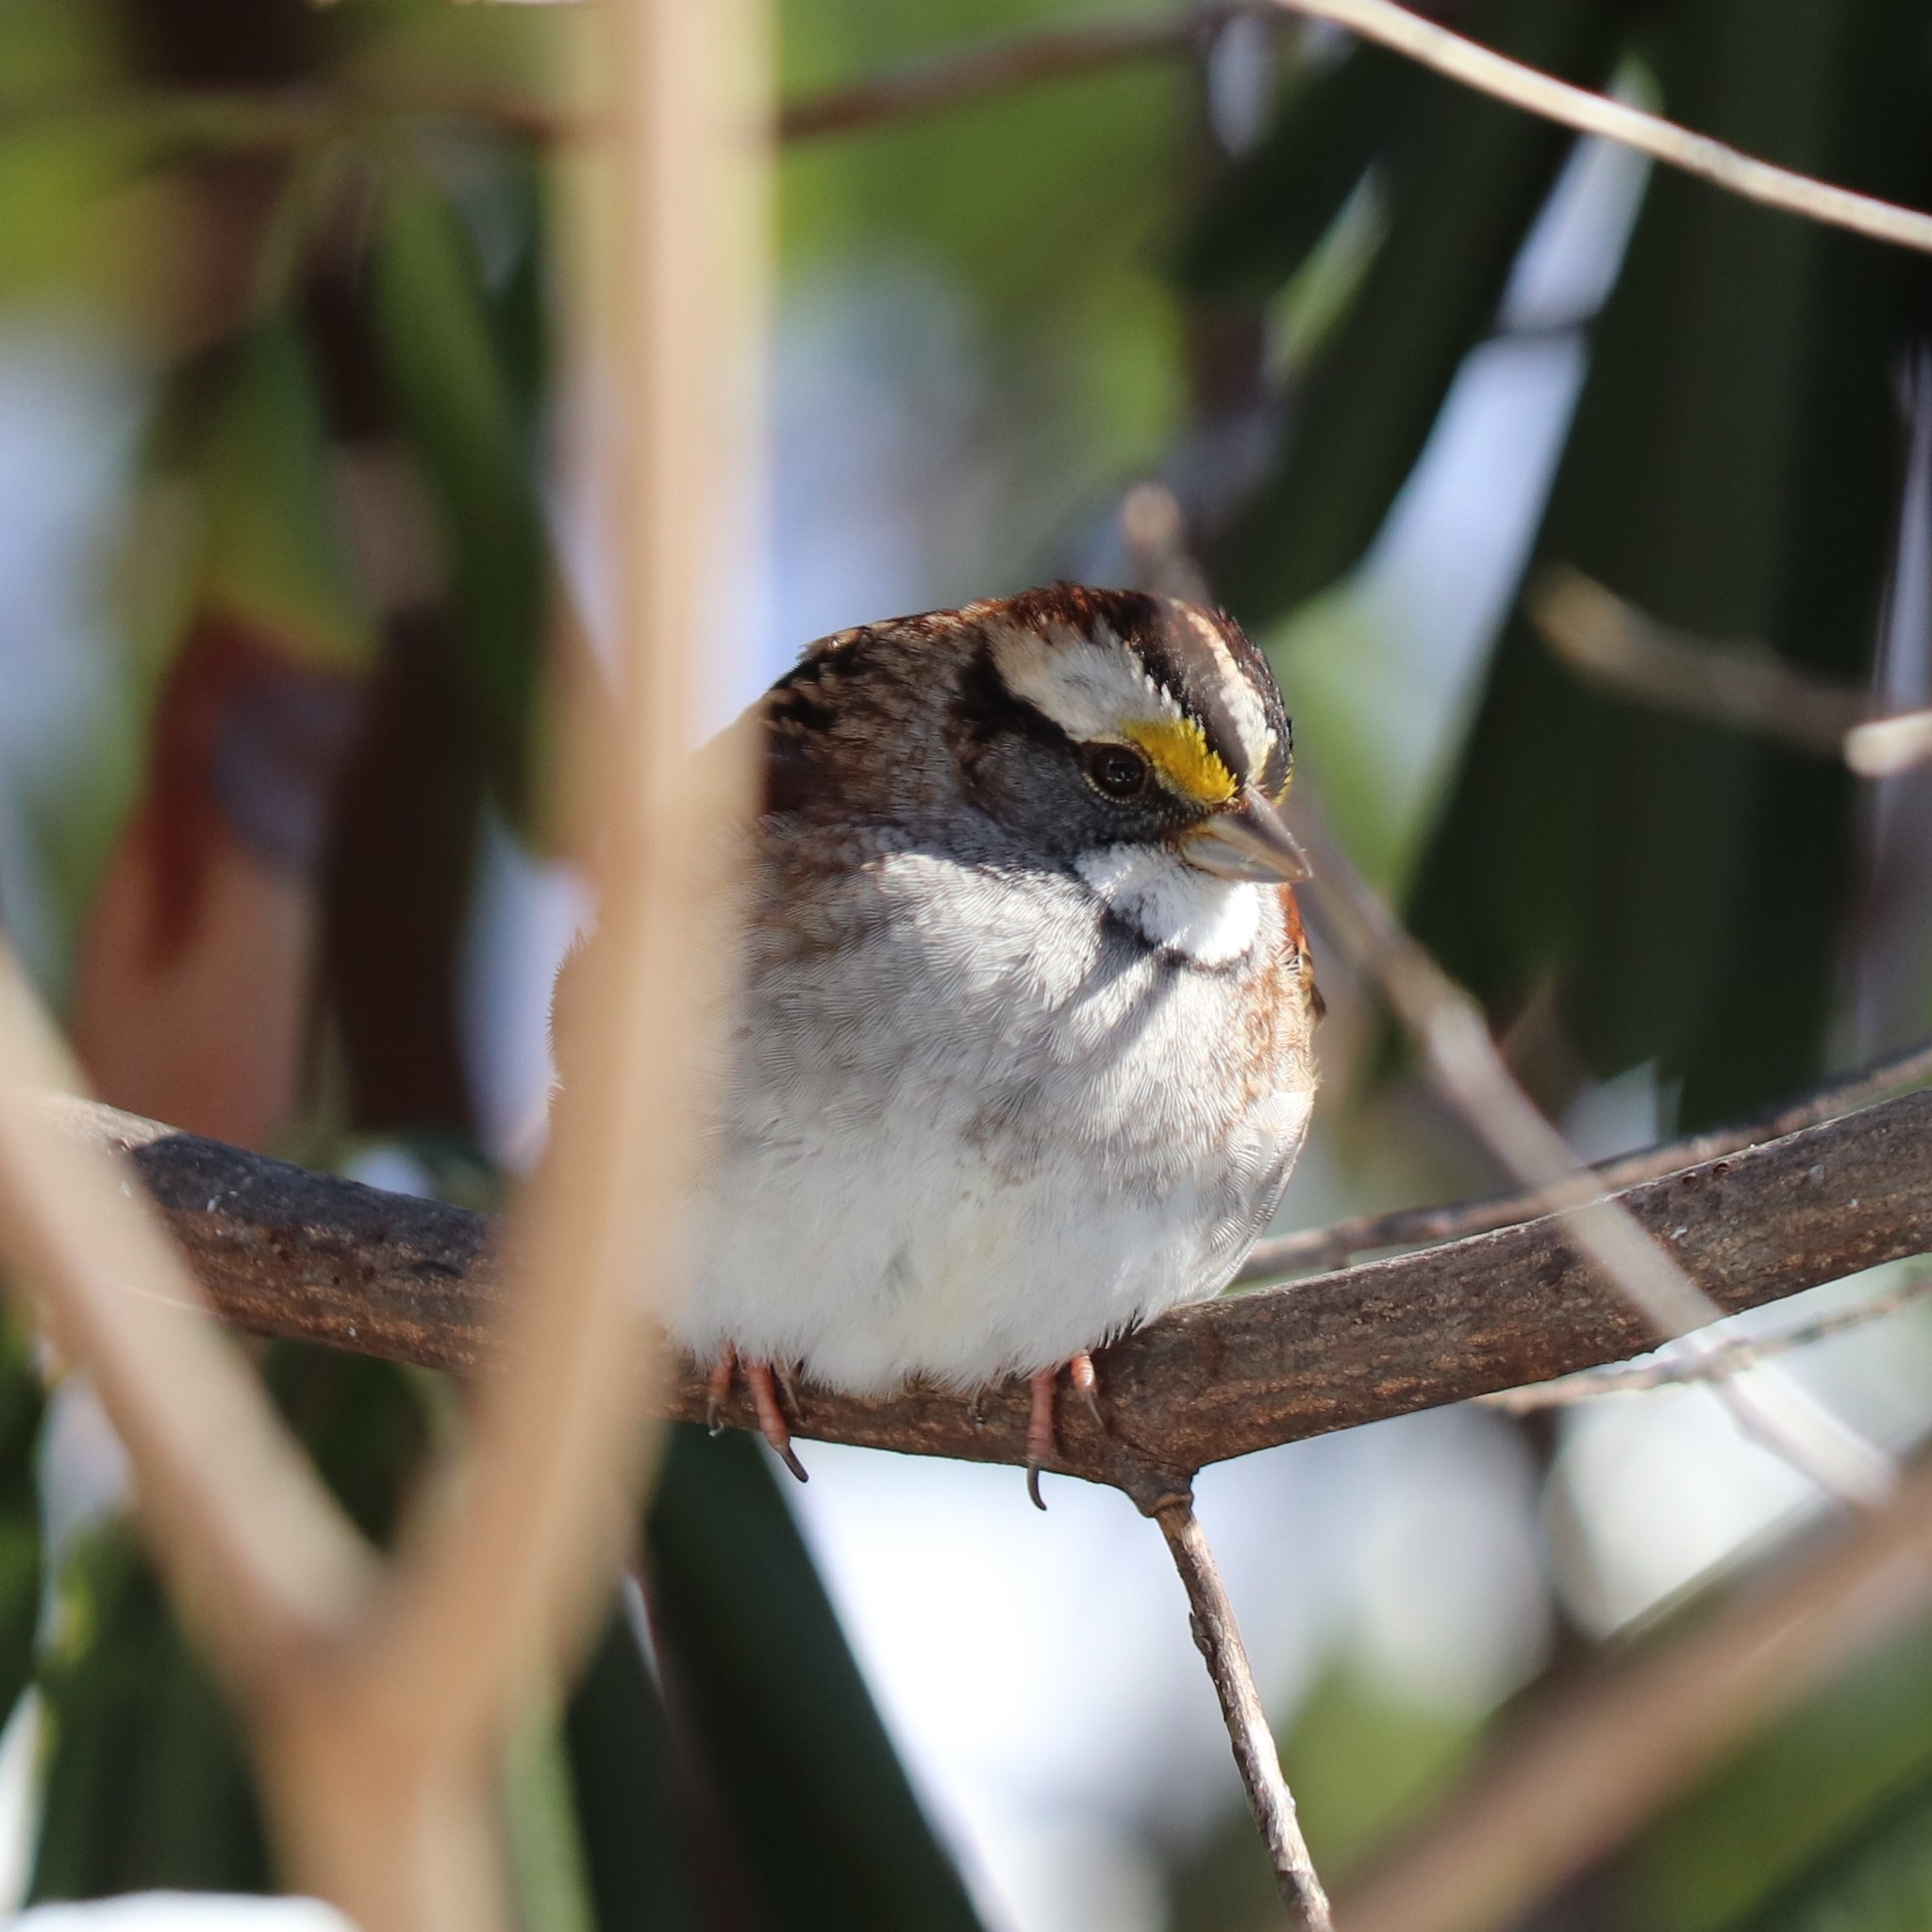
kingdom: Animalia
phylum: Chordata
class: Aves
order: Passeriformes
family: Passerellidae
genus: Zonotrichia
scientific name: Zonotrichia albicollis
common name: White-throated sparrow
